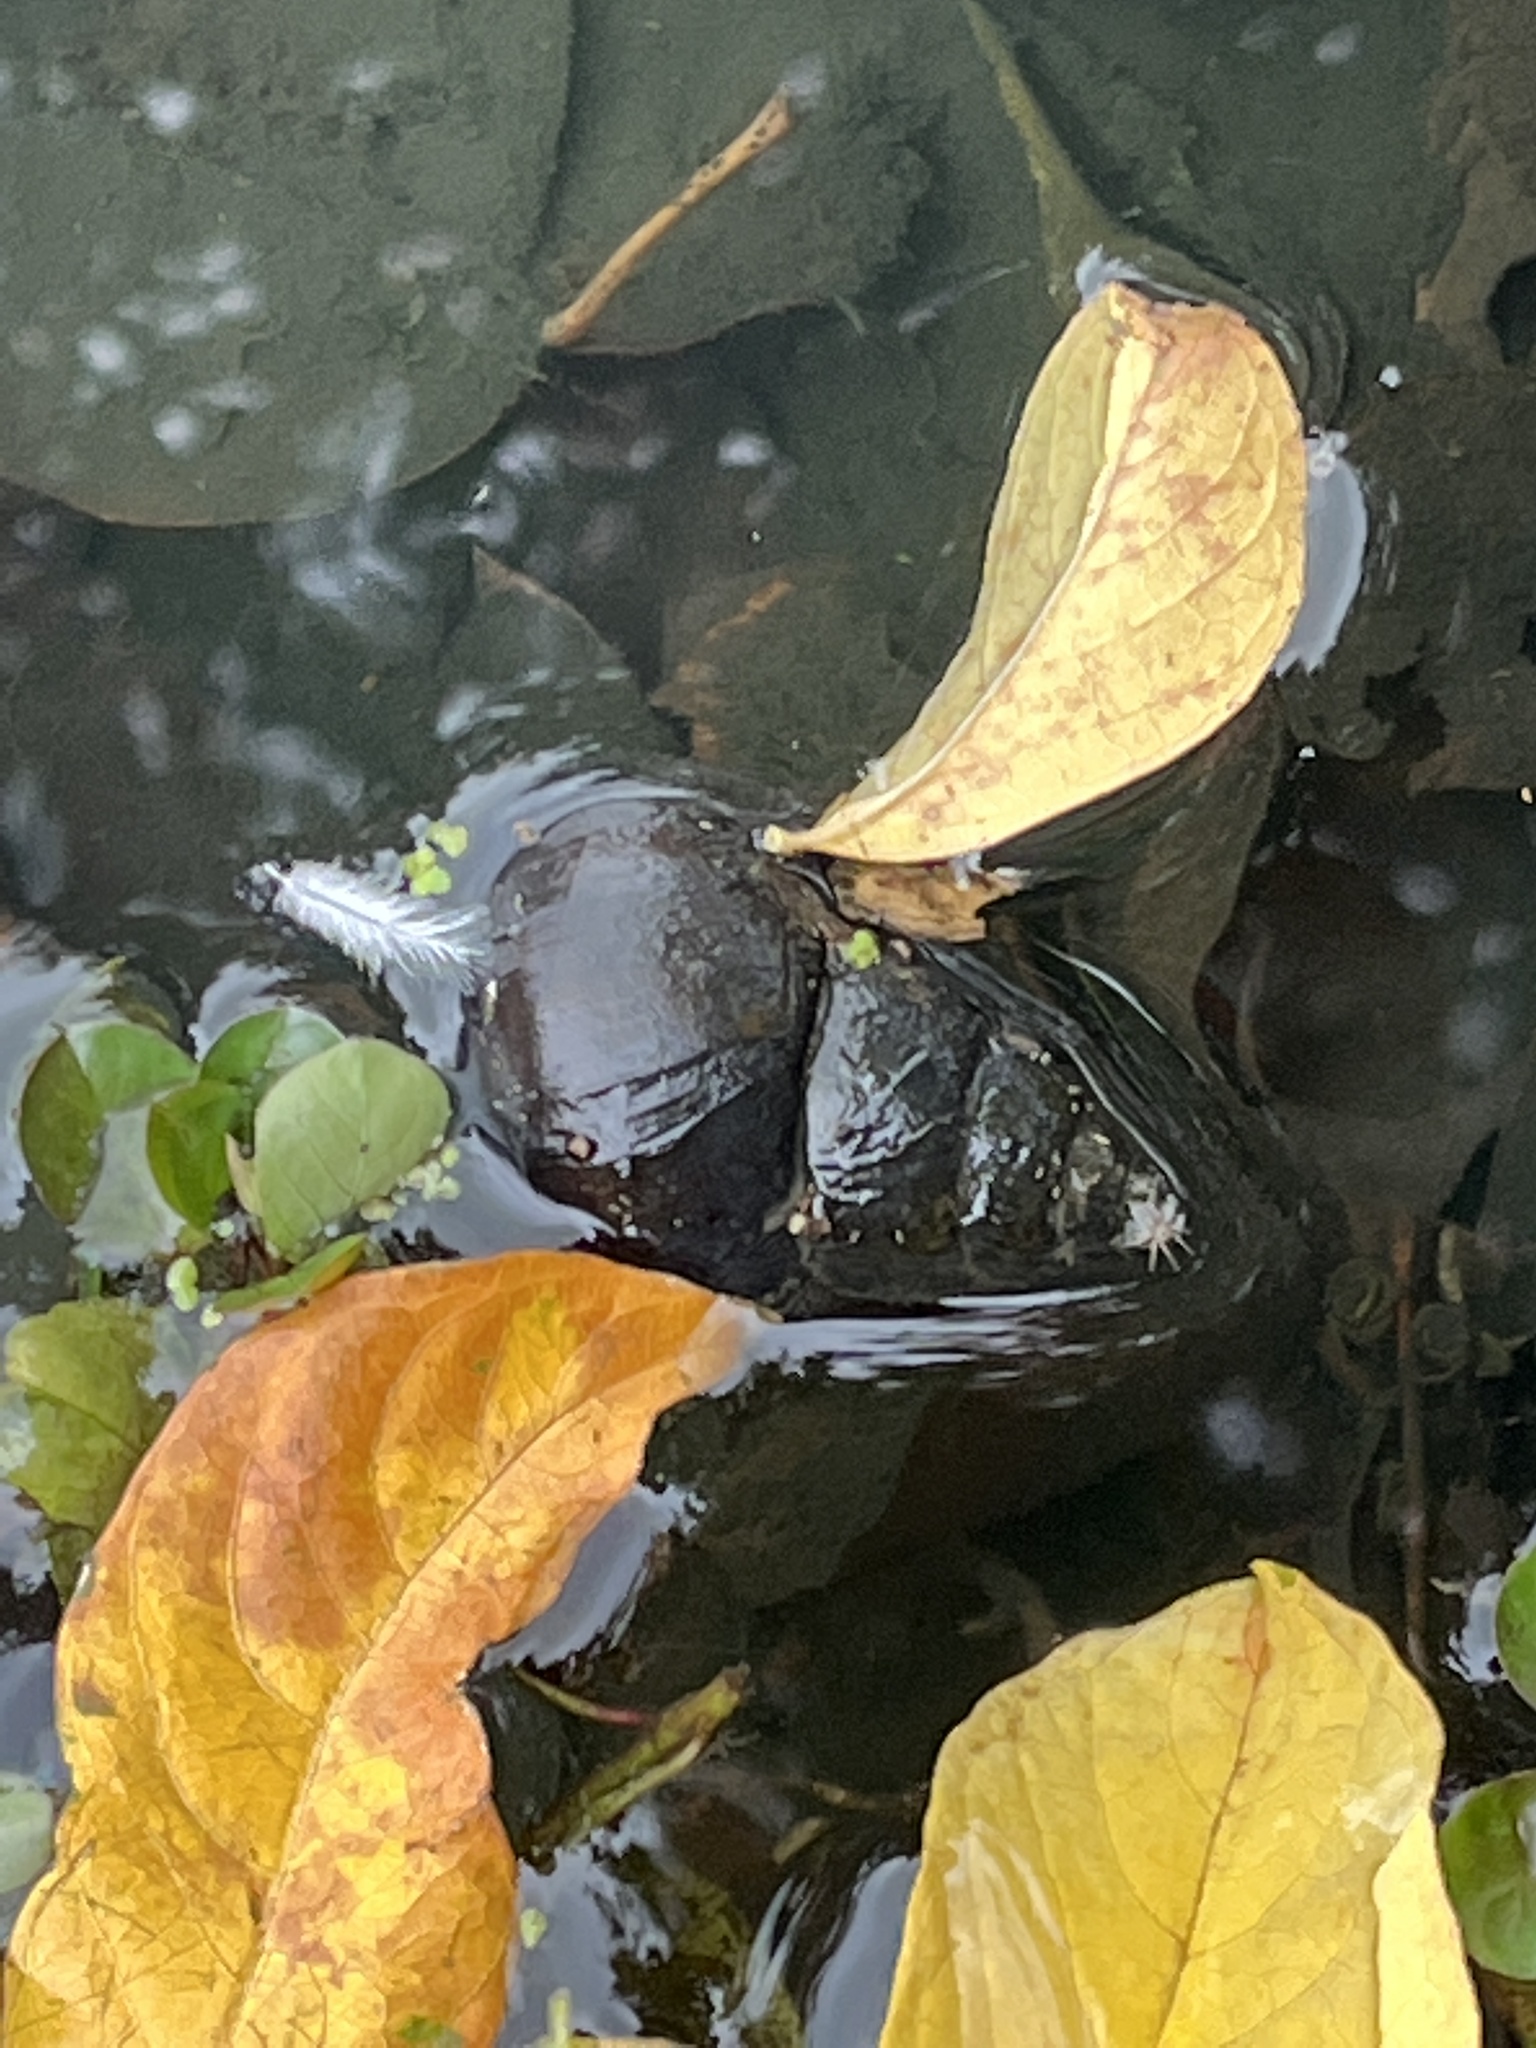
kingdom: Animalia
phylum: Mollusca
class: Gastropoda
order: Architaenioglossa
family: Viviparidae
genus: Cipangopaludina
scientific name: Cipangopaludina chinensis
